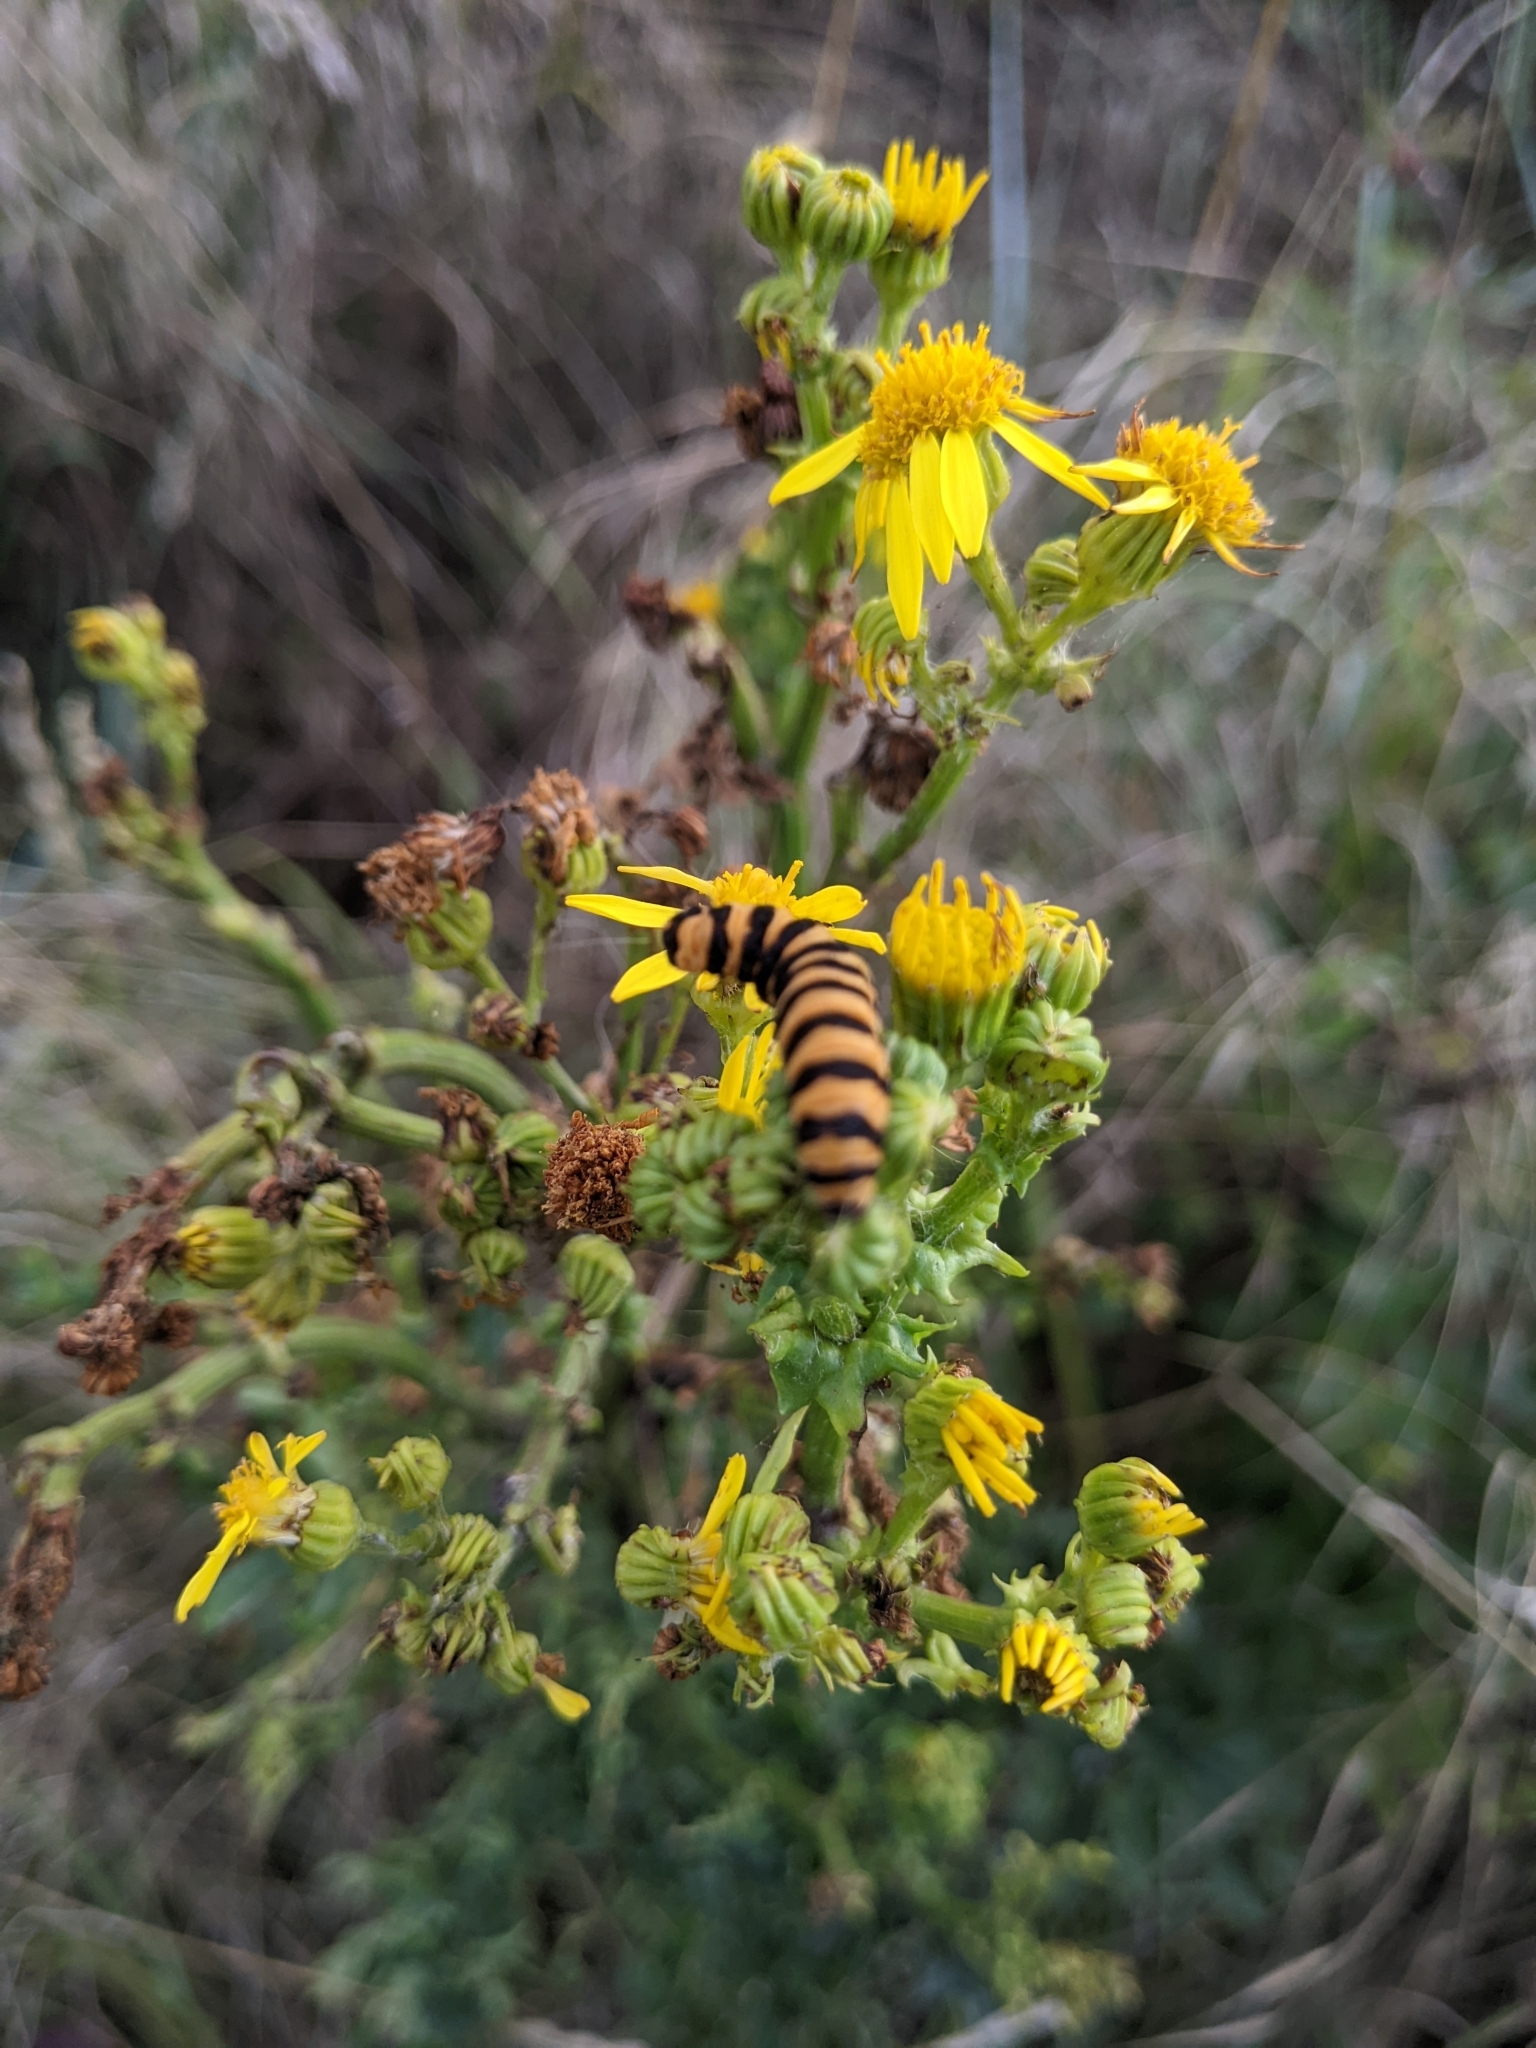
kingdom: Animalia
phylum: Arthropoda
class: Insecta
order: Lepidoptera
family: Erebidae
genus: Tyria
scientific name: Tyria jacobaeae
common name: Cinnabar
